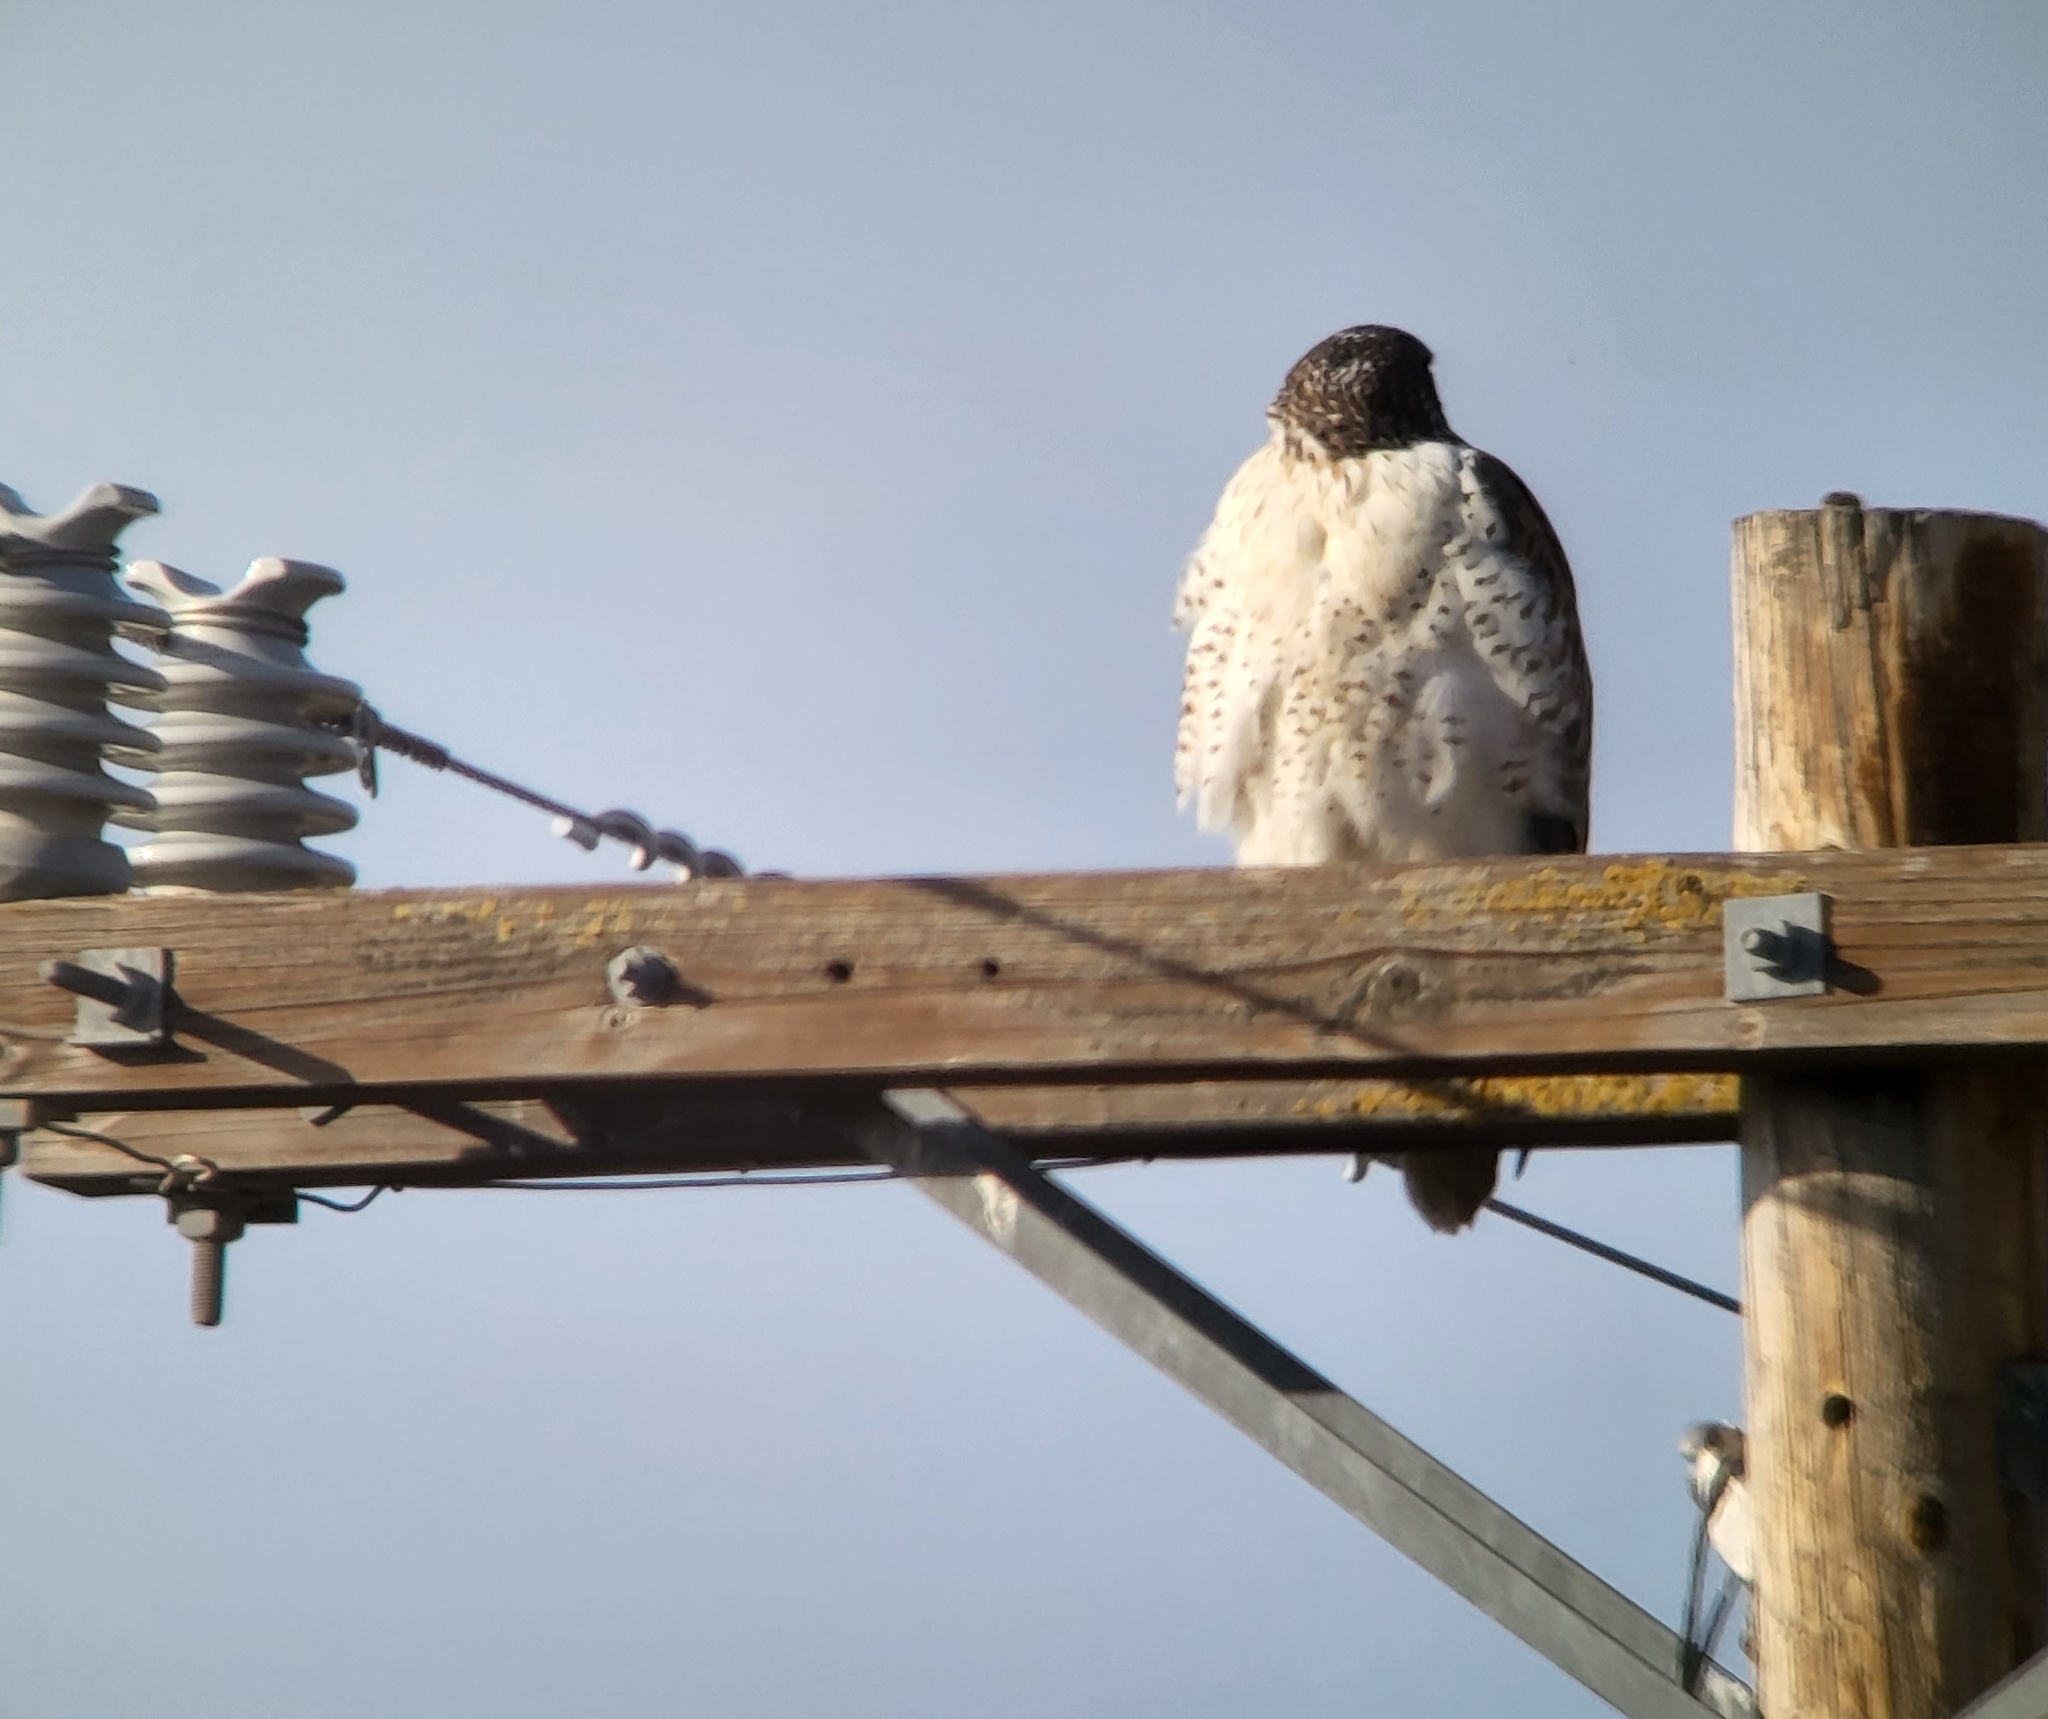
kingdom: Animalia
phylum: Chordata
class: Aves
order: Accipitriformes
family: Accipitridae
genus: Buteo
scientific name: Buteo regalis
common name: Ferruginous hawk
